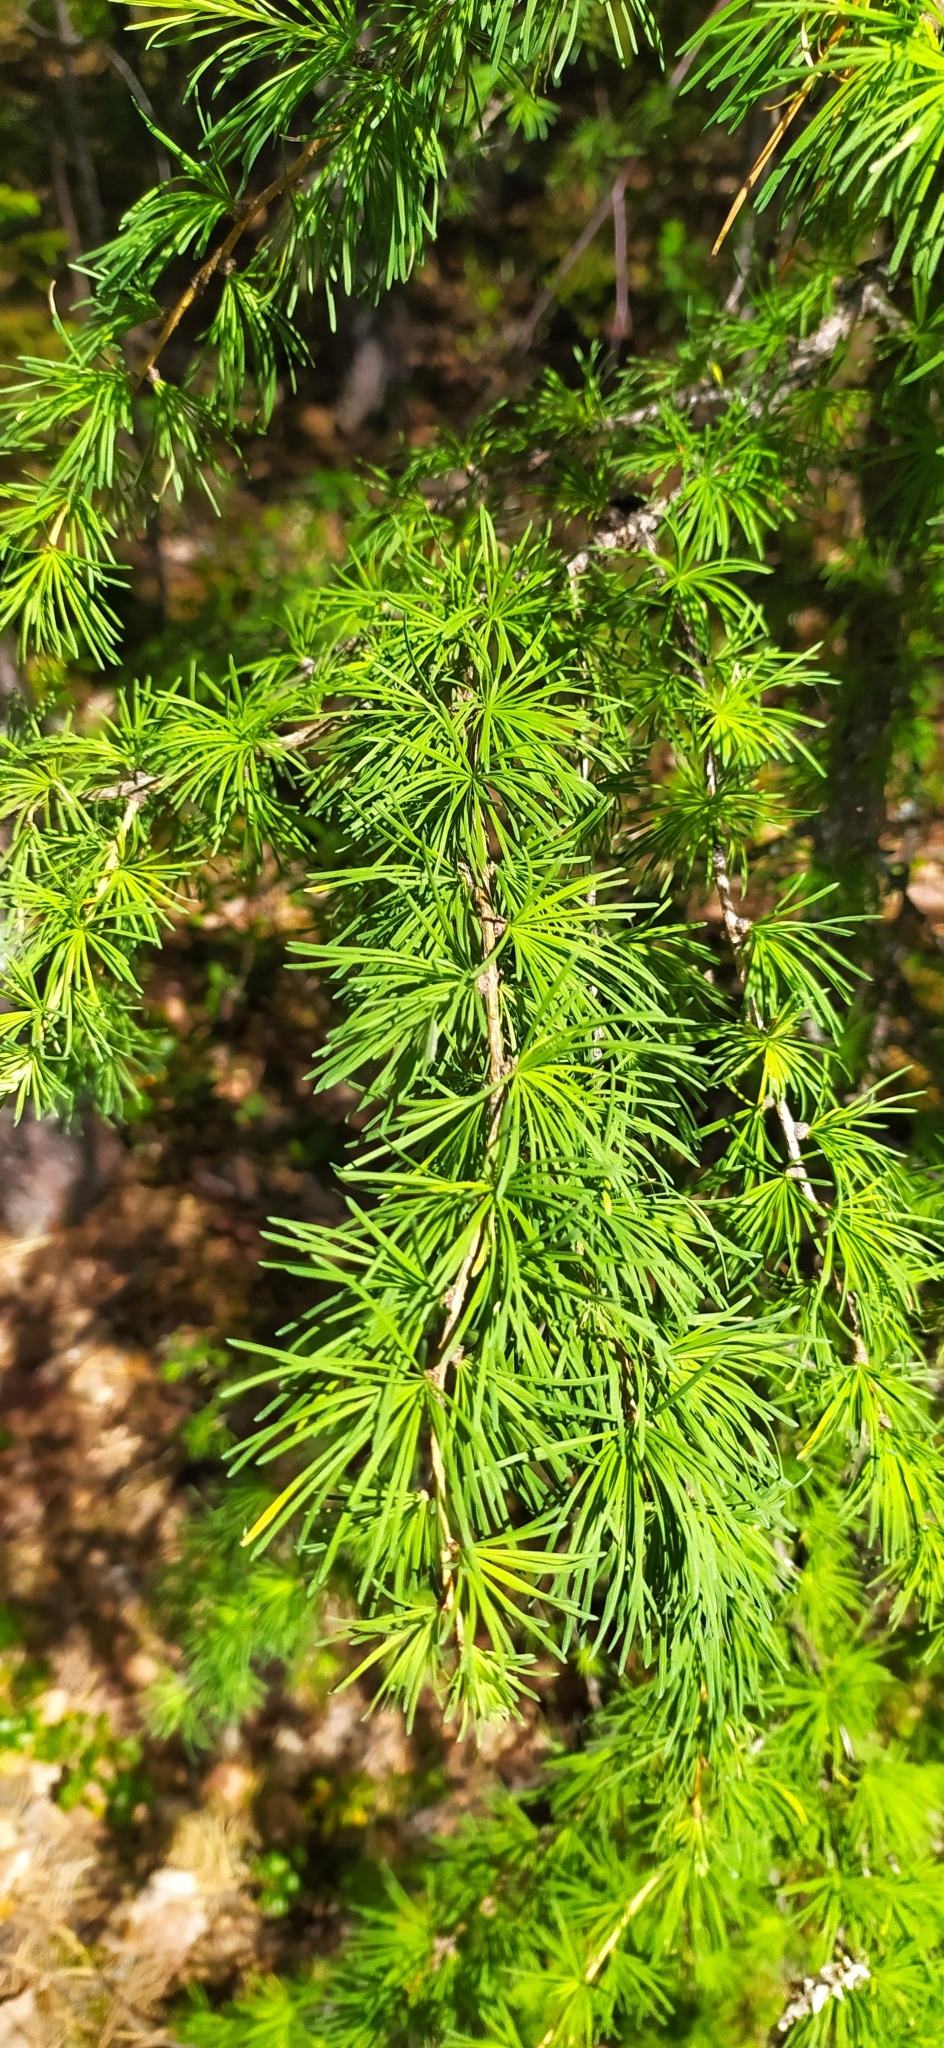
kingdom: Plantae
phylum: Tracheophyta
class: Pinopsida
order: Pinales
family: Pinaceae
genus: Larix
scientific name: Larix sibirica
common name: Siberian larch
